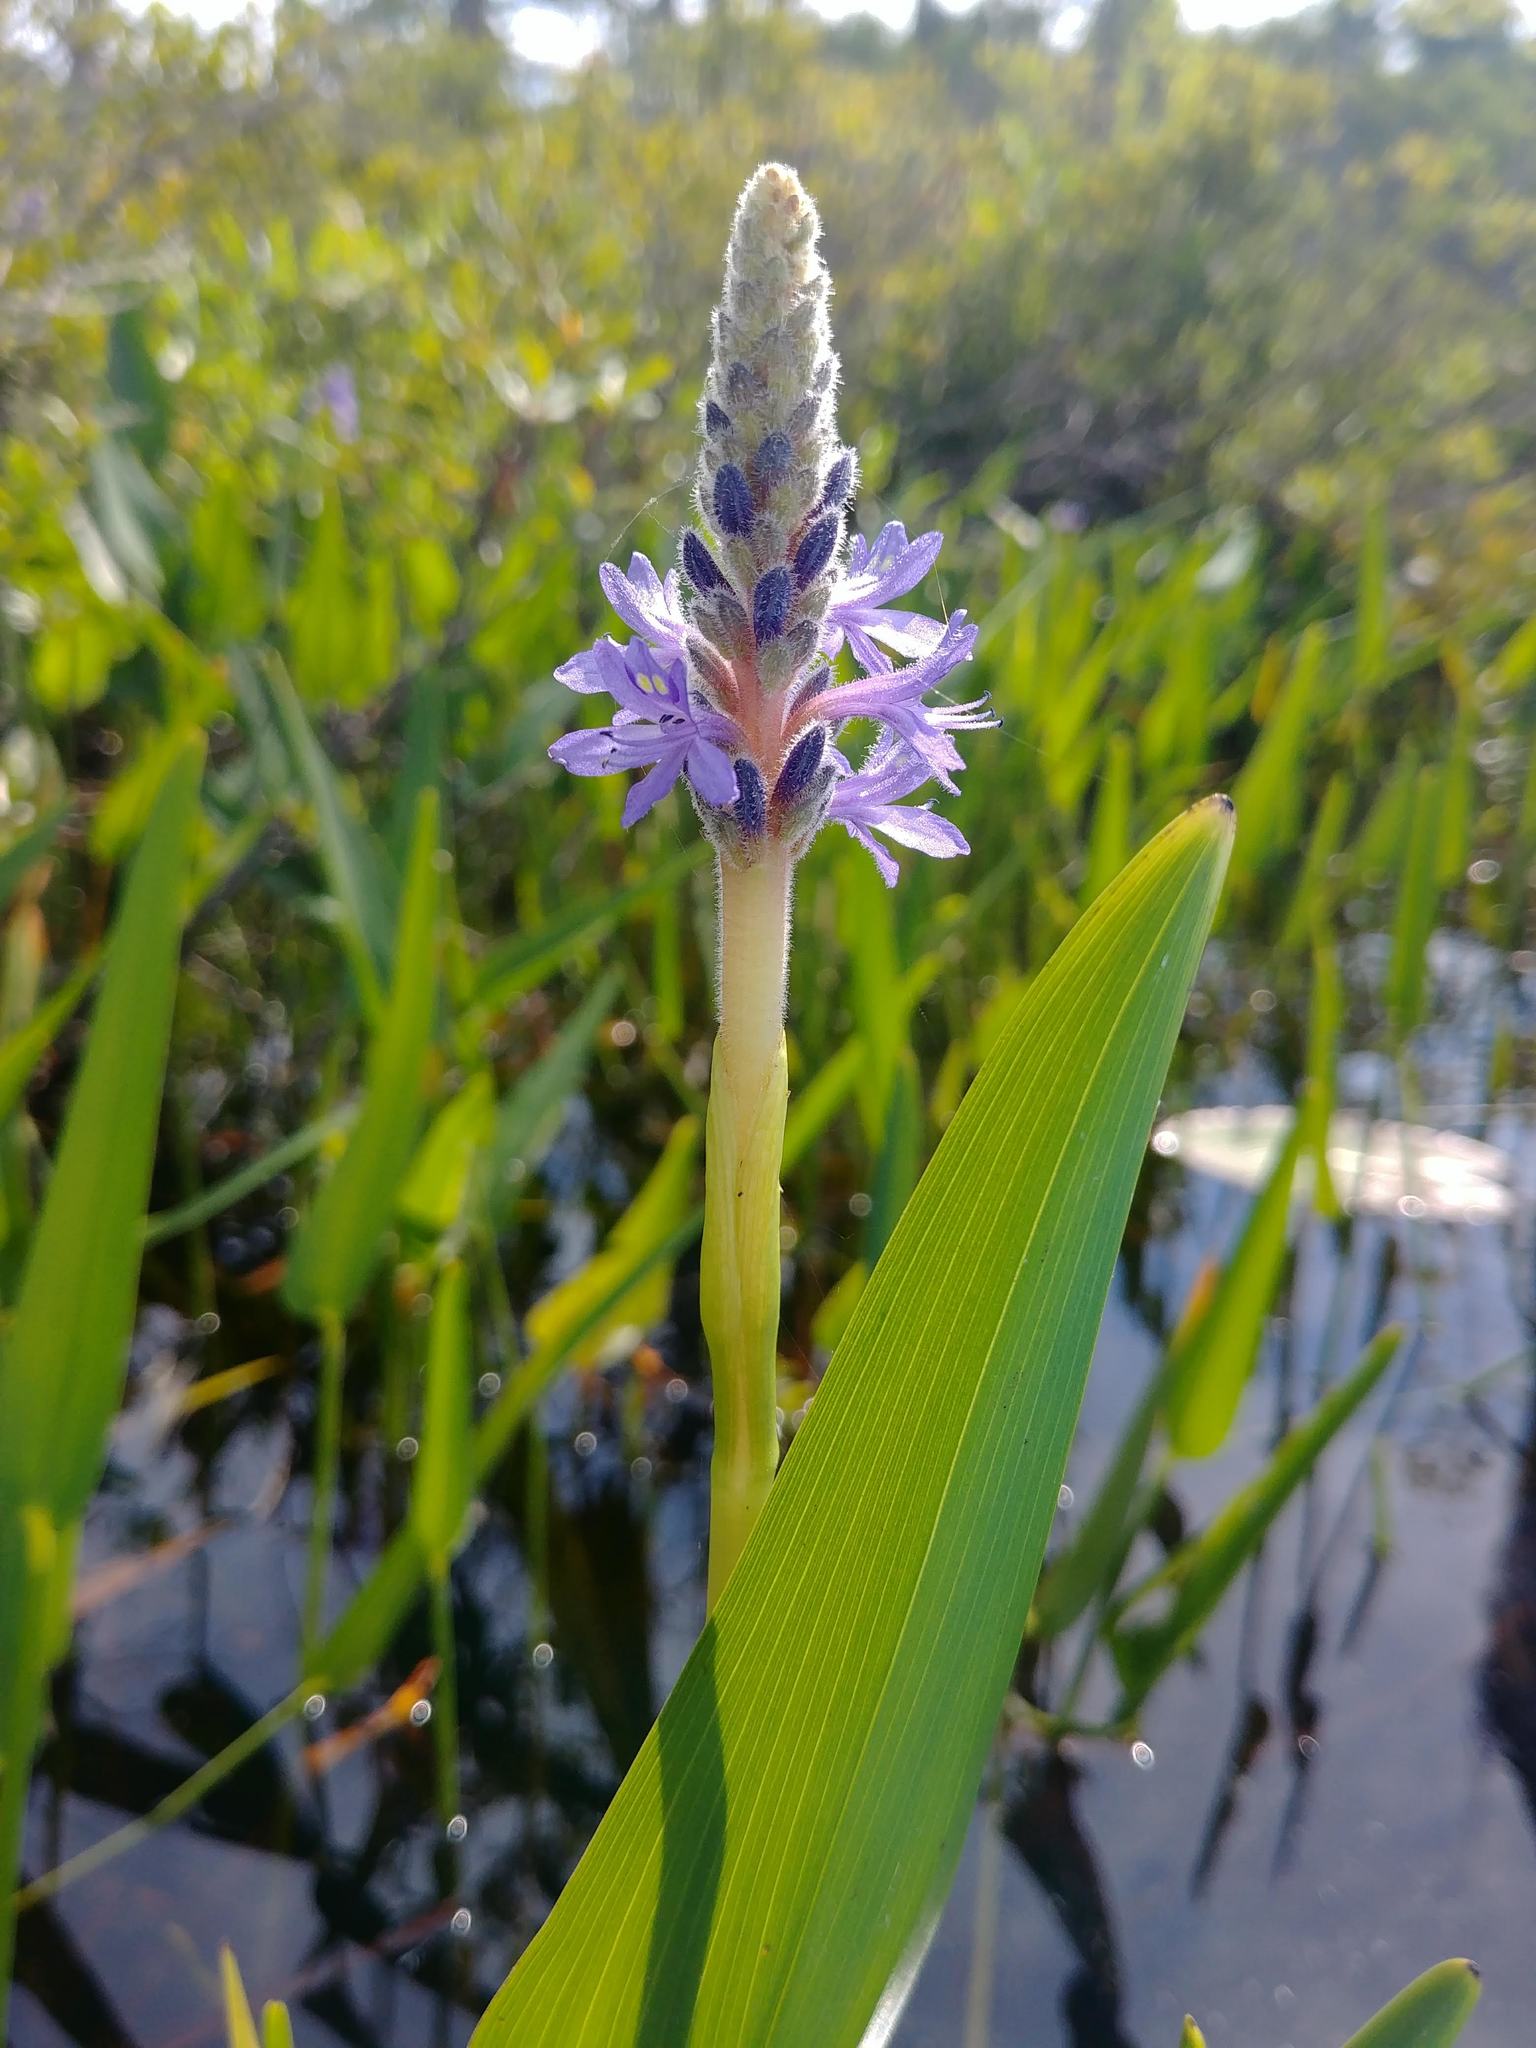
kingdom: Plantae
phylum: Tracheophyta
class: Liliopsida
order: Commelinales
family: Pontederiaceae
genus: Pontederia
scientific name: Pontederia cordata
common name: Pickerelweed
